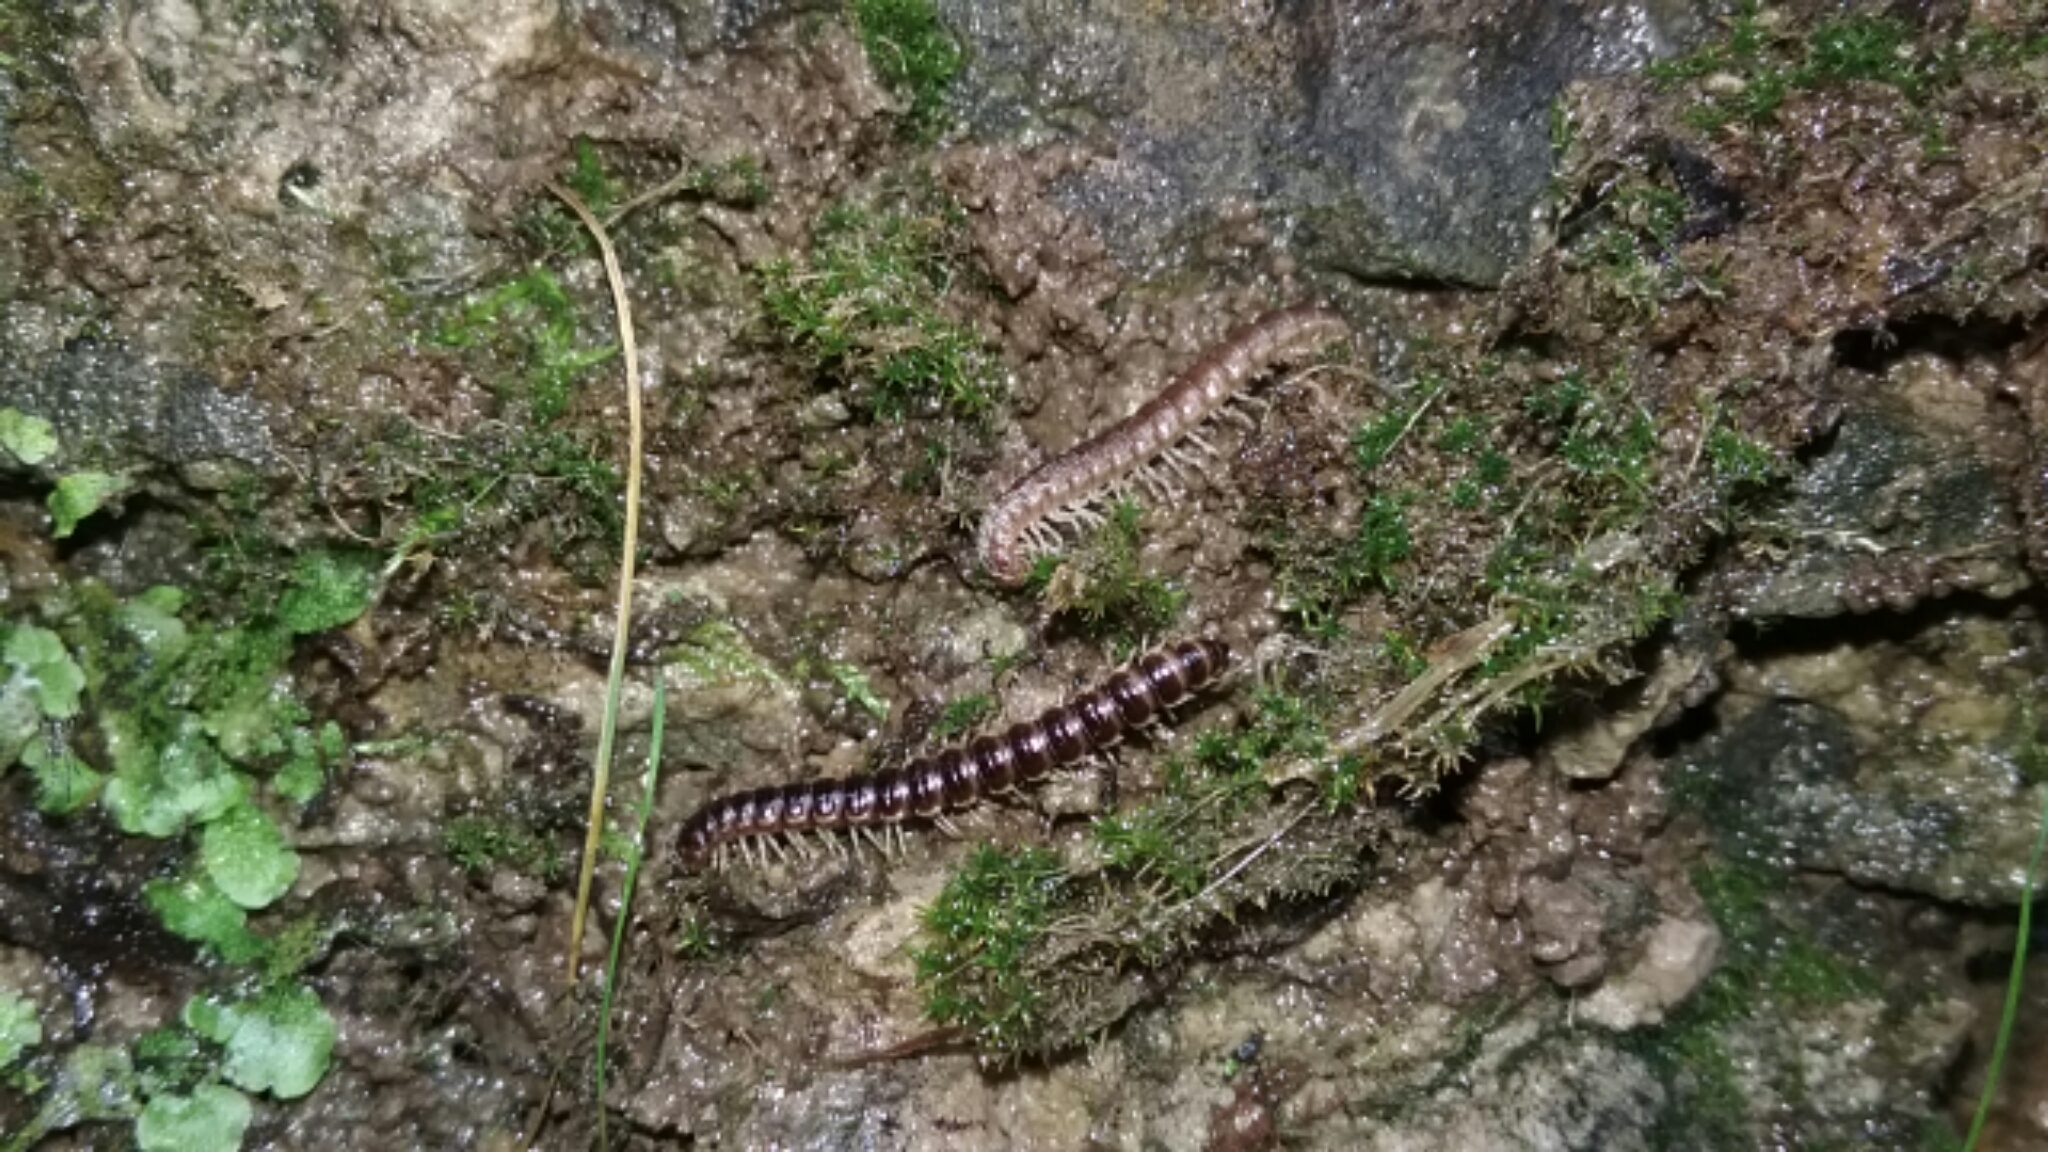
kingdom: Animalia
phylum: Arthropoda
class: Diplopoda
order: Polydesmida
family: Paradoxosomatidae
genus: Oxidus
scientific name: Oxidus gracilis
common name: Greenhouse millipede
